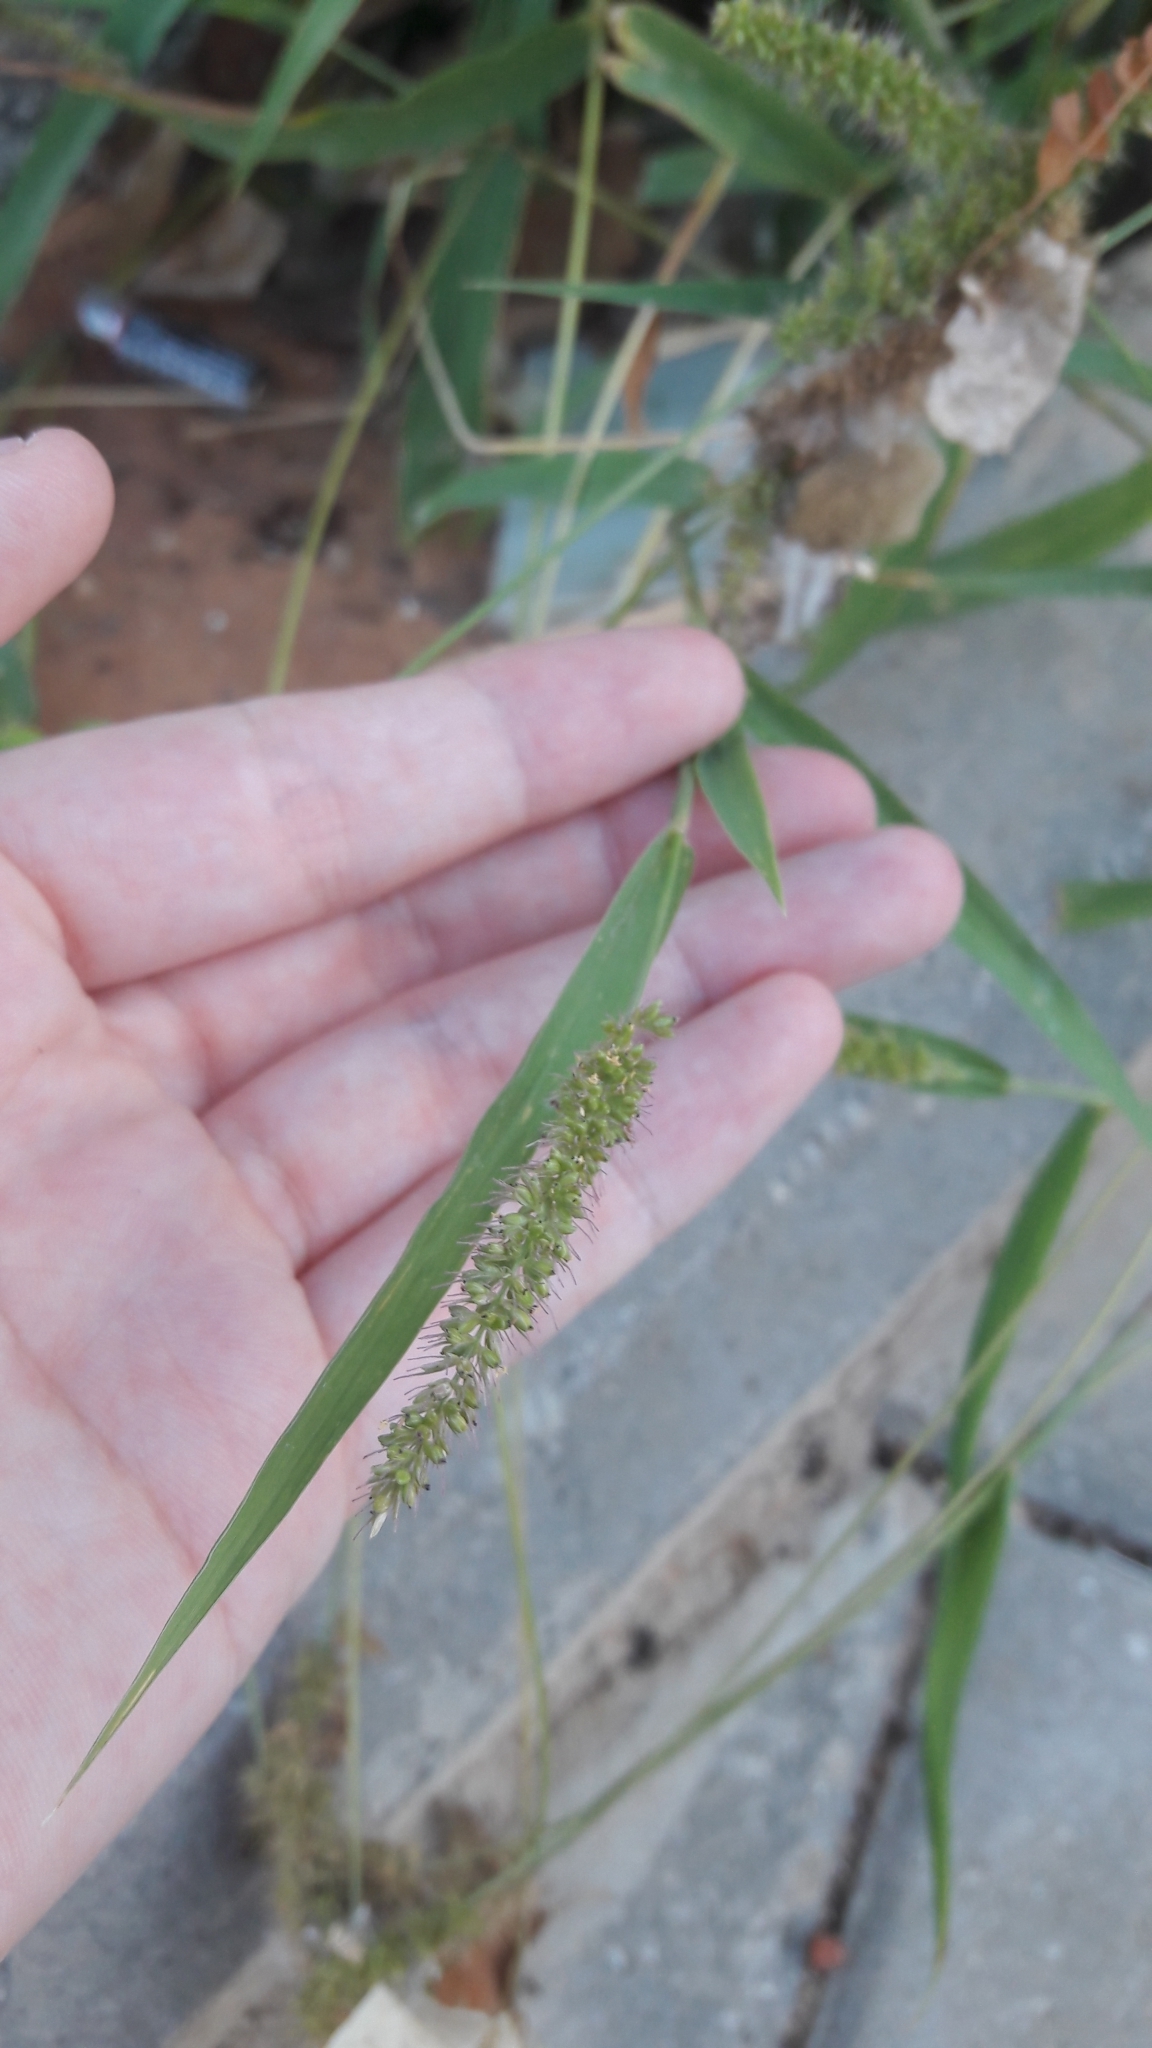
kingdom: Plantae
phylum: Tracheophyta
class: Liliopsida
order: Poales
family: Poaceae
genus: Setaria
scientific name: Setaria verticillata
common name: Hooked bristlegrass
